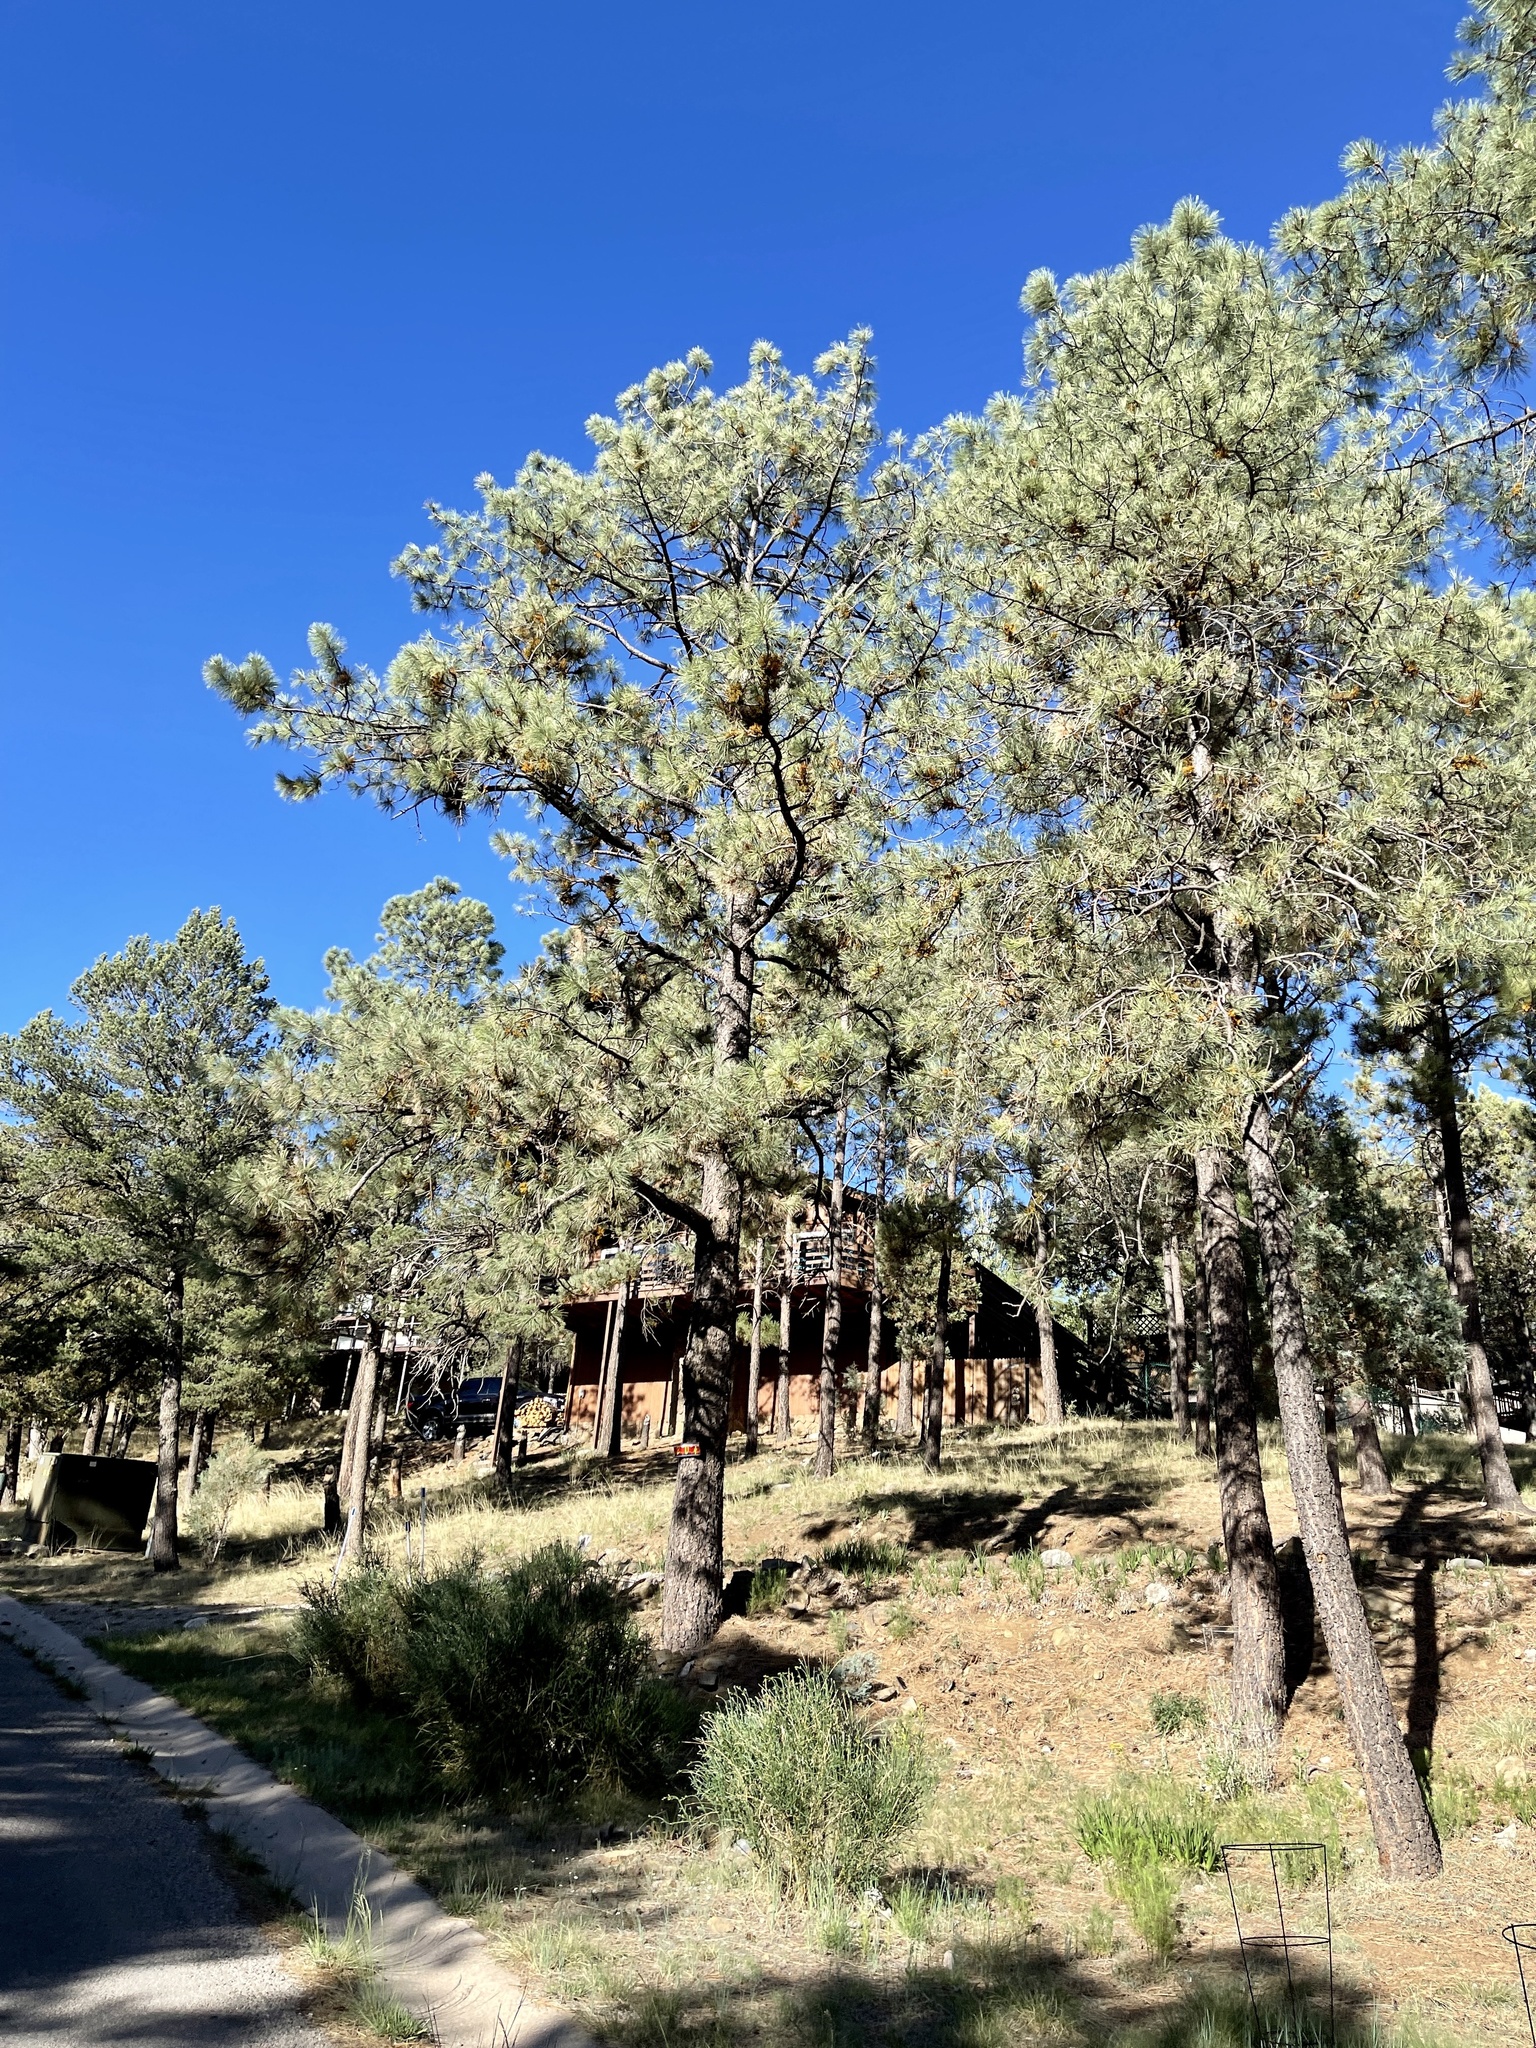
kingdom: Plantae
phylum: Tracheophyta
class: Pinopsida
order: Pinales
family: Pinaceae
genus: Pinus
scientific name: Pinus ponderosa
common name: Western yellow-pine
